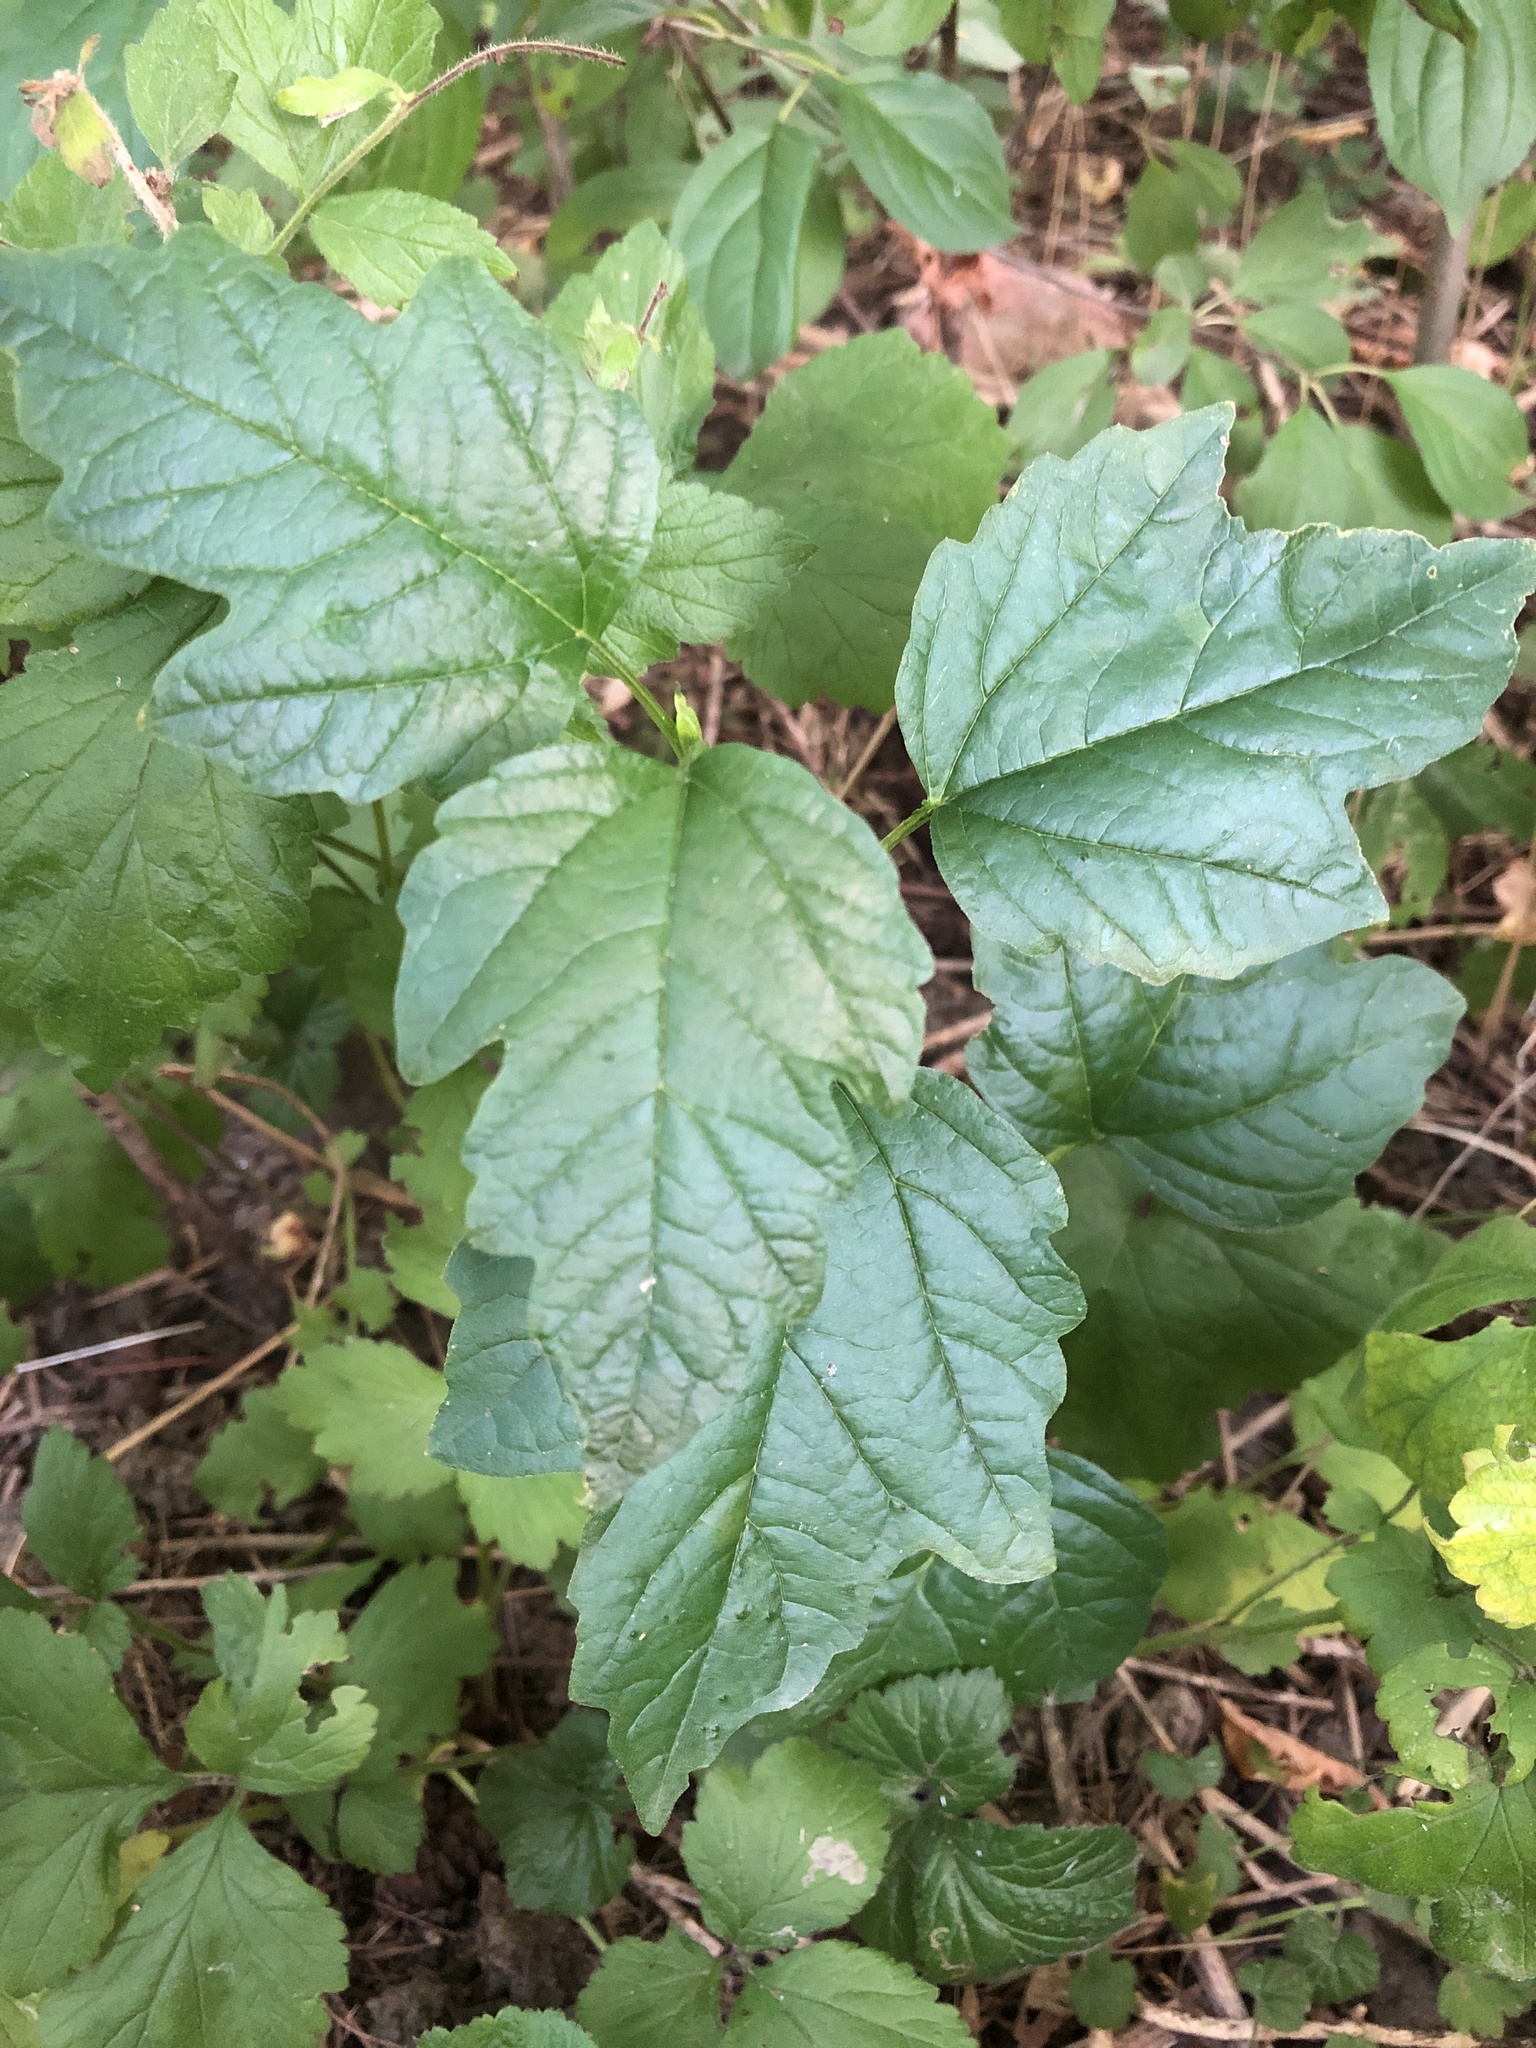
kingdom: Plantae
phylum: Tracheophyta
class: Magnoliopsida
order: Dipsacales
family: Viburnaceae
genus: Viburnum
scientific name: Viburnum opulus
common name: Guelder-rose
